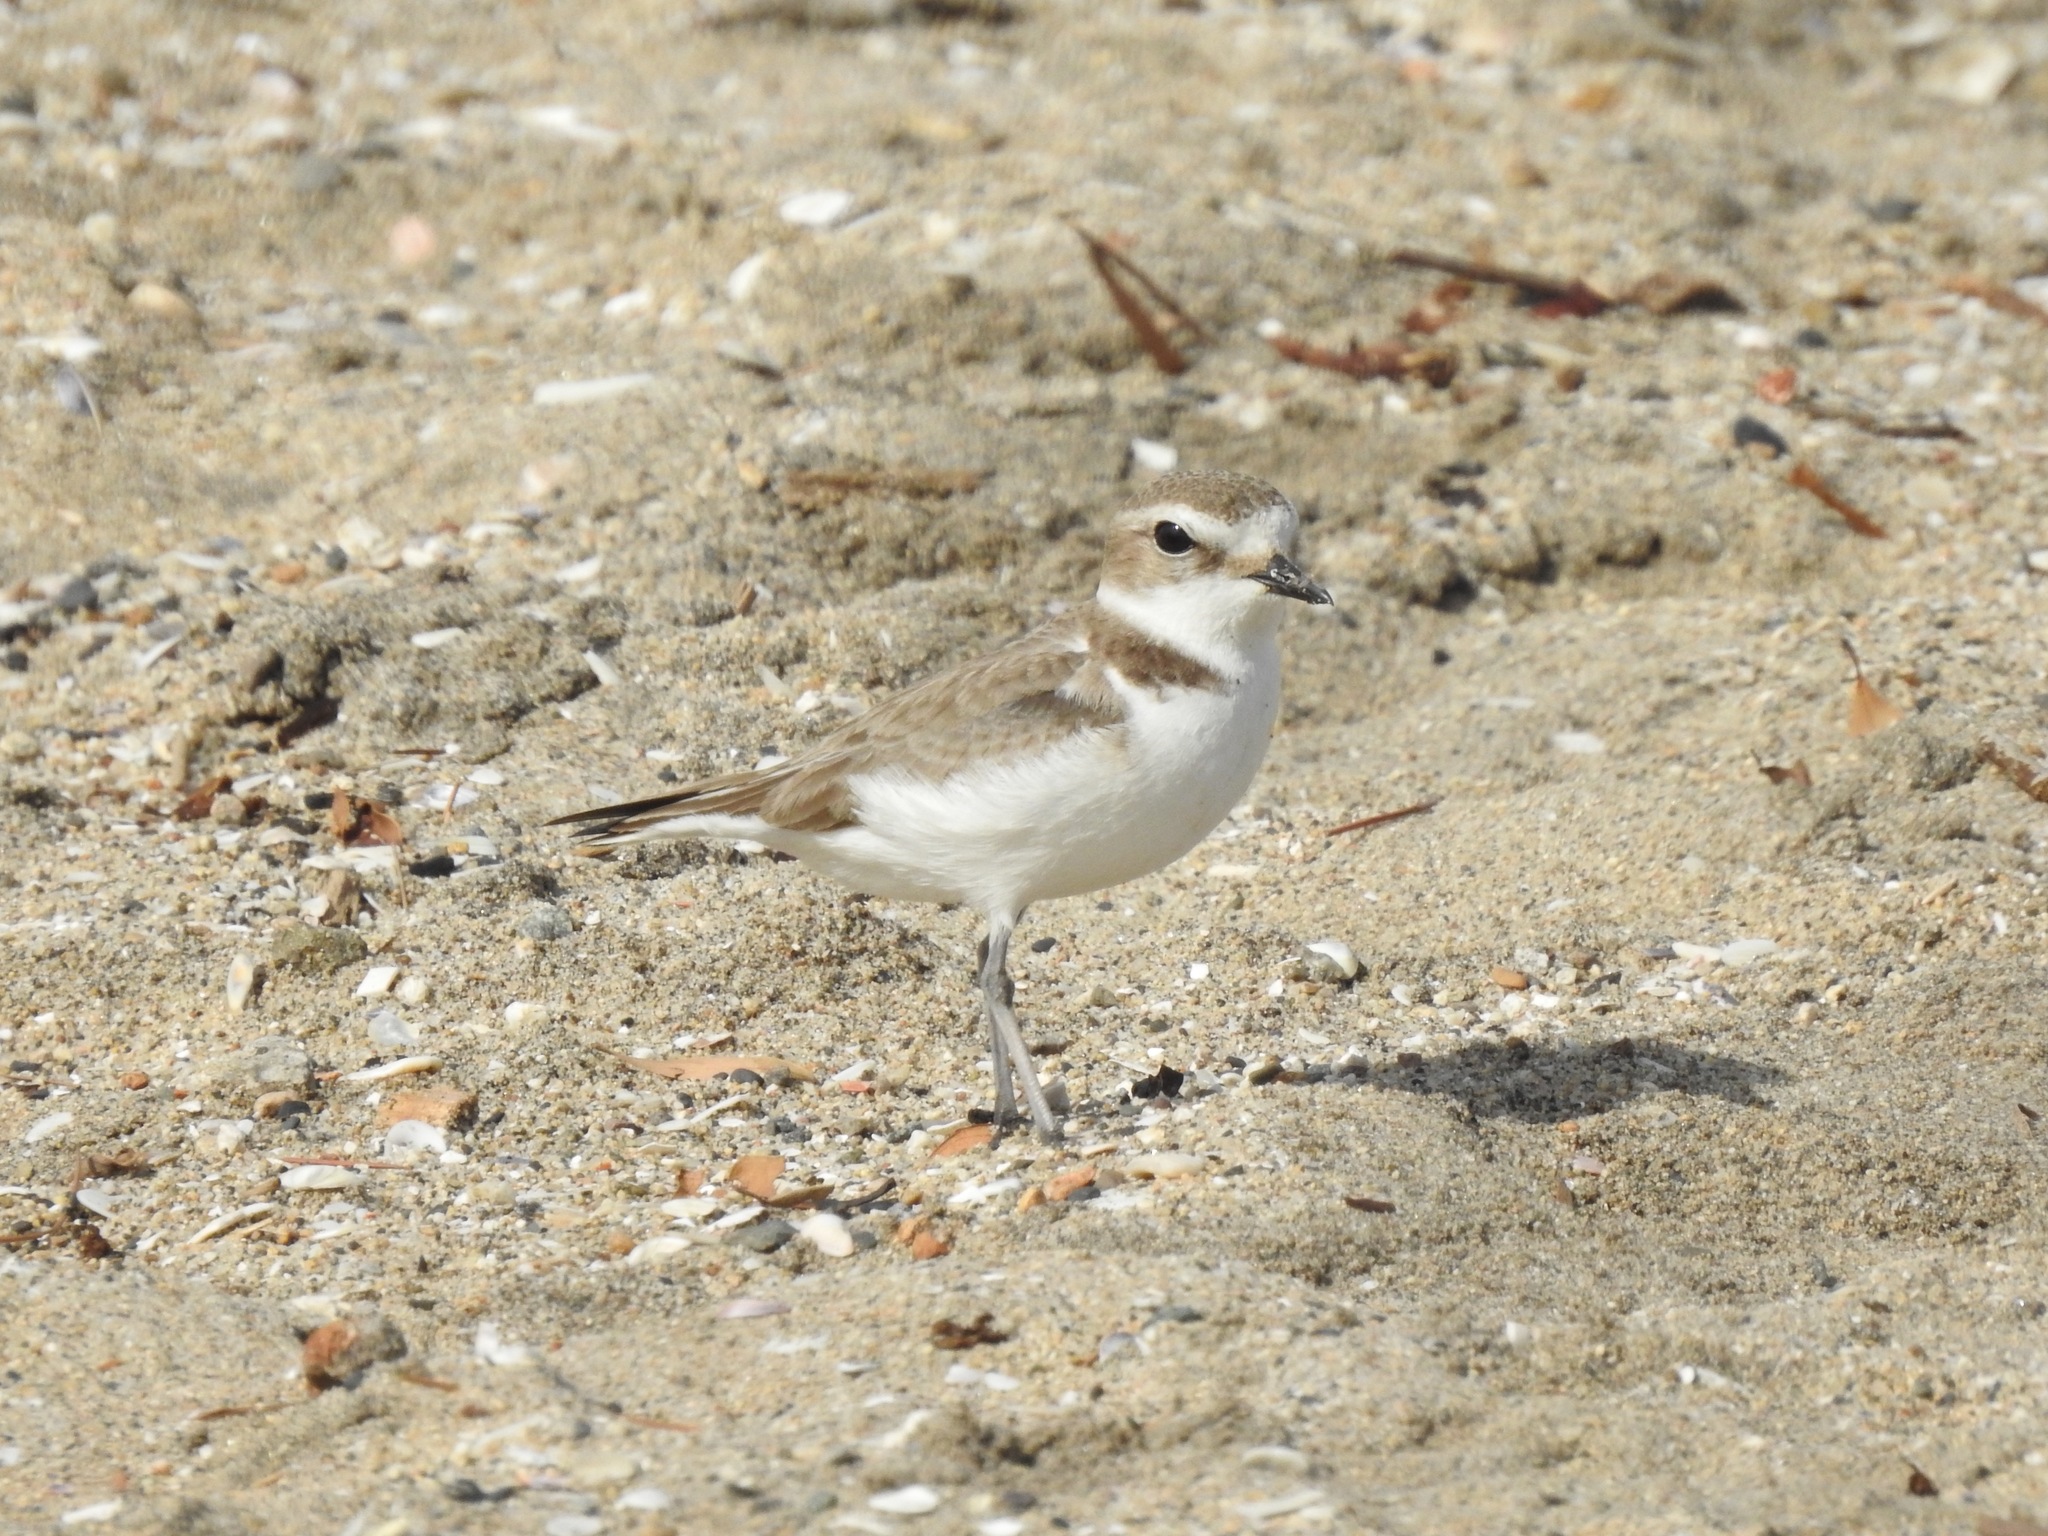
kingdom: Animalia
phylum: Chordata
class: Aves
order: Charadriiformes
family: Charadriidae
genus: Anarhynchus
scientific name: Anarhynchus
